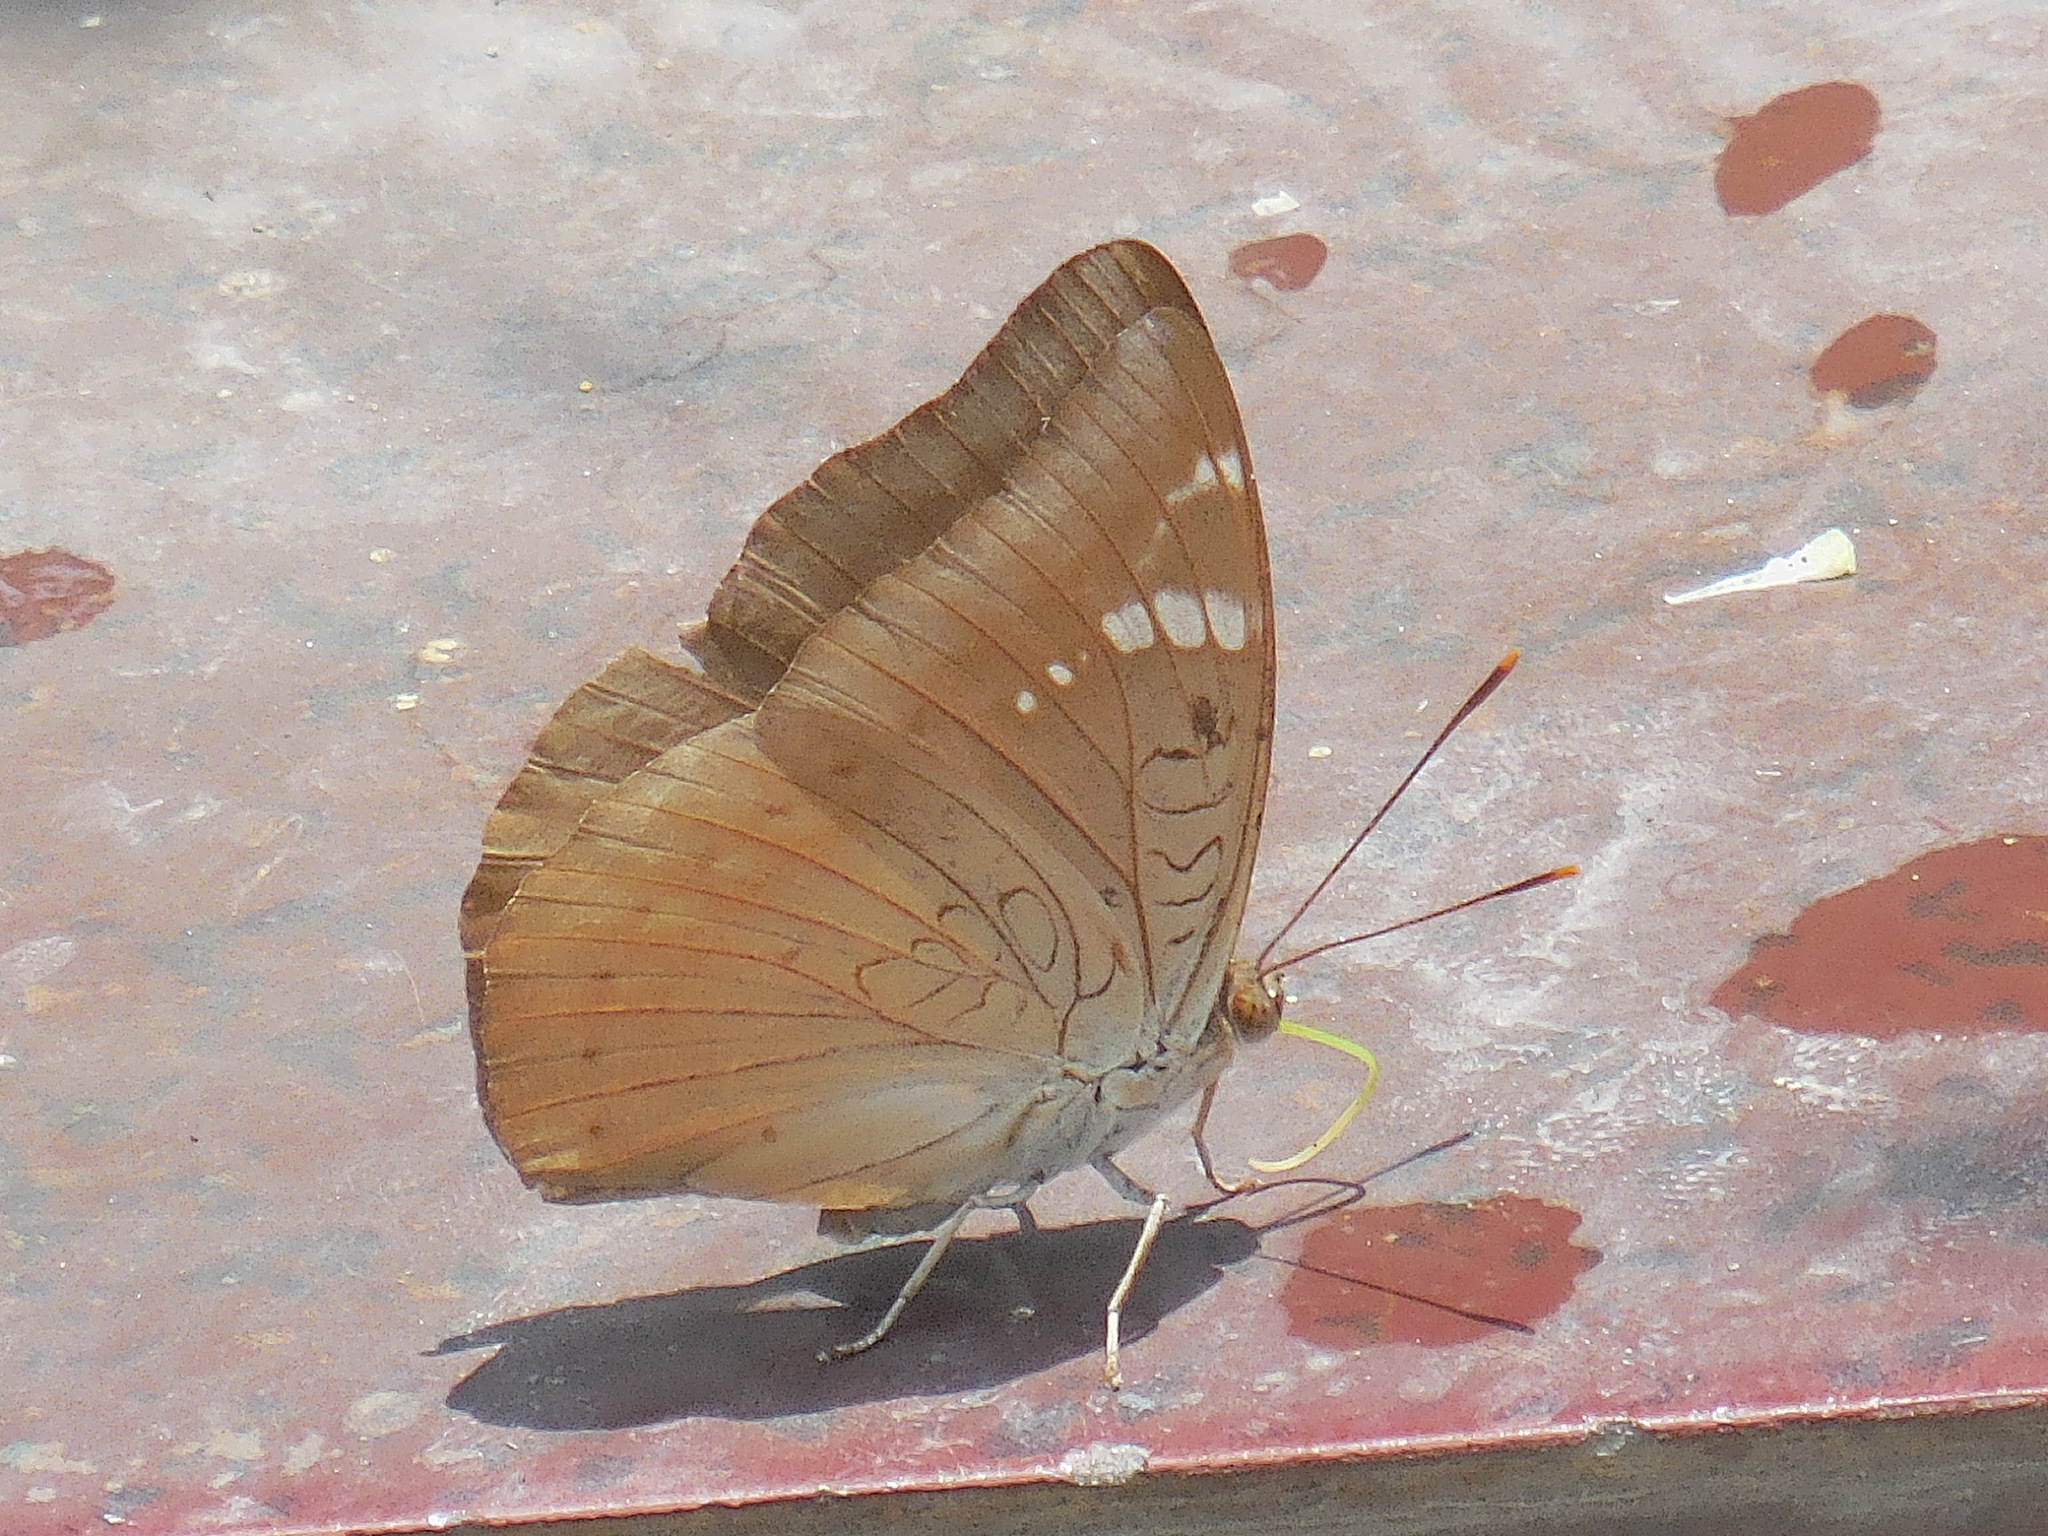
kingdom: Animalia
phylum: Arthropoda
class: Insecta
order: Lepidoptera
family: Nymphalidae
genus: Euthalia
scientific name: Euthalia aconthea
